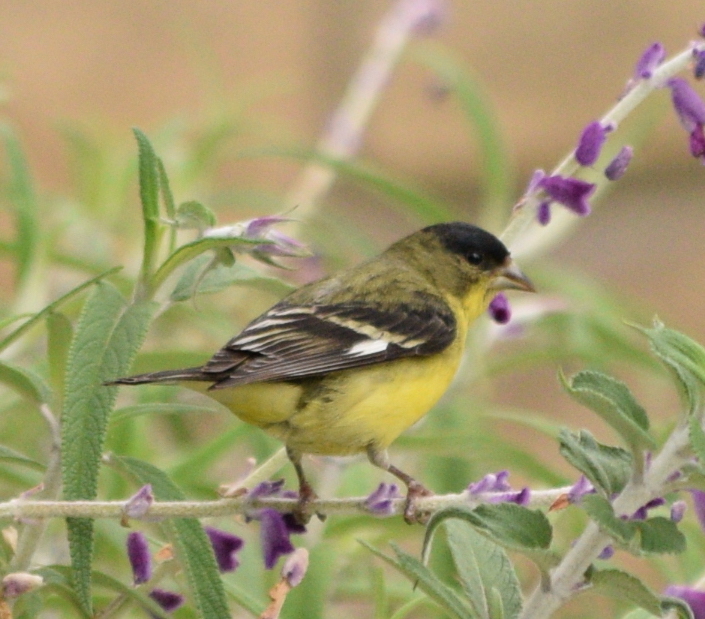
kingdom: Animalia
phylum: Chordata
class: Aves
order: Passeriformes
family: Fringillidae
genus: Spinus
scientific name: Spinus psaltria
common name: Lesser goldfinch
